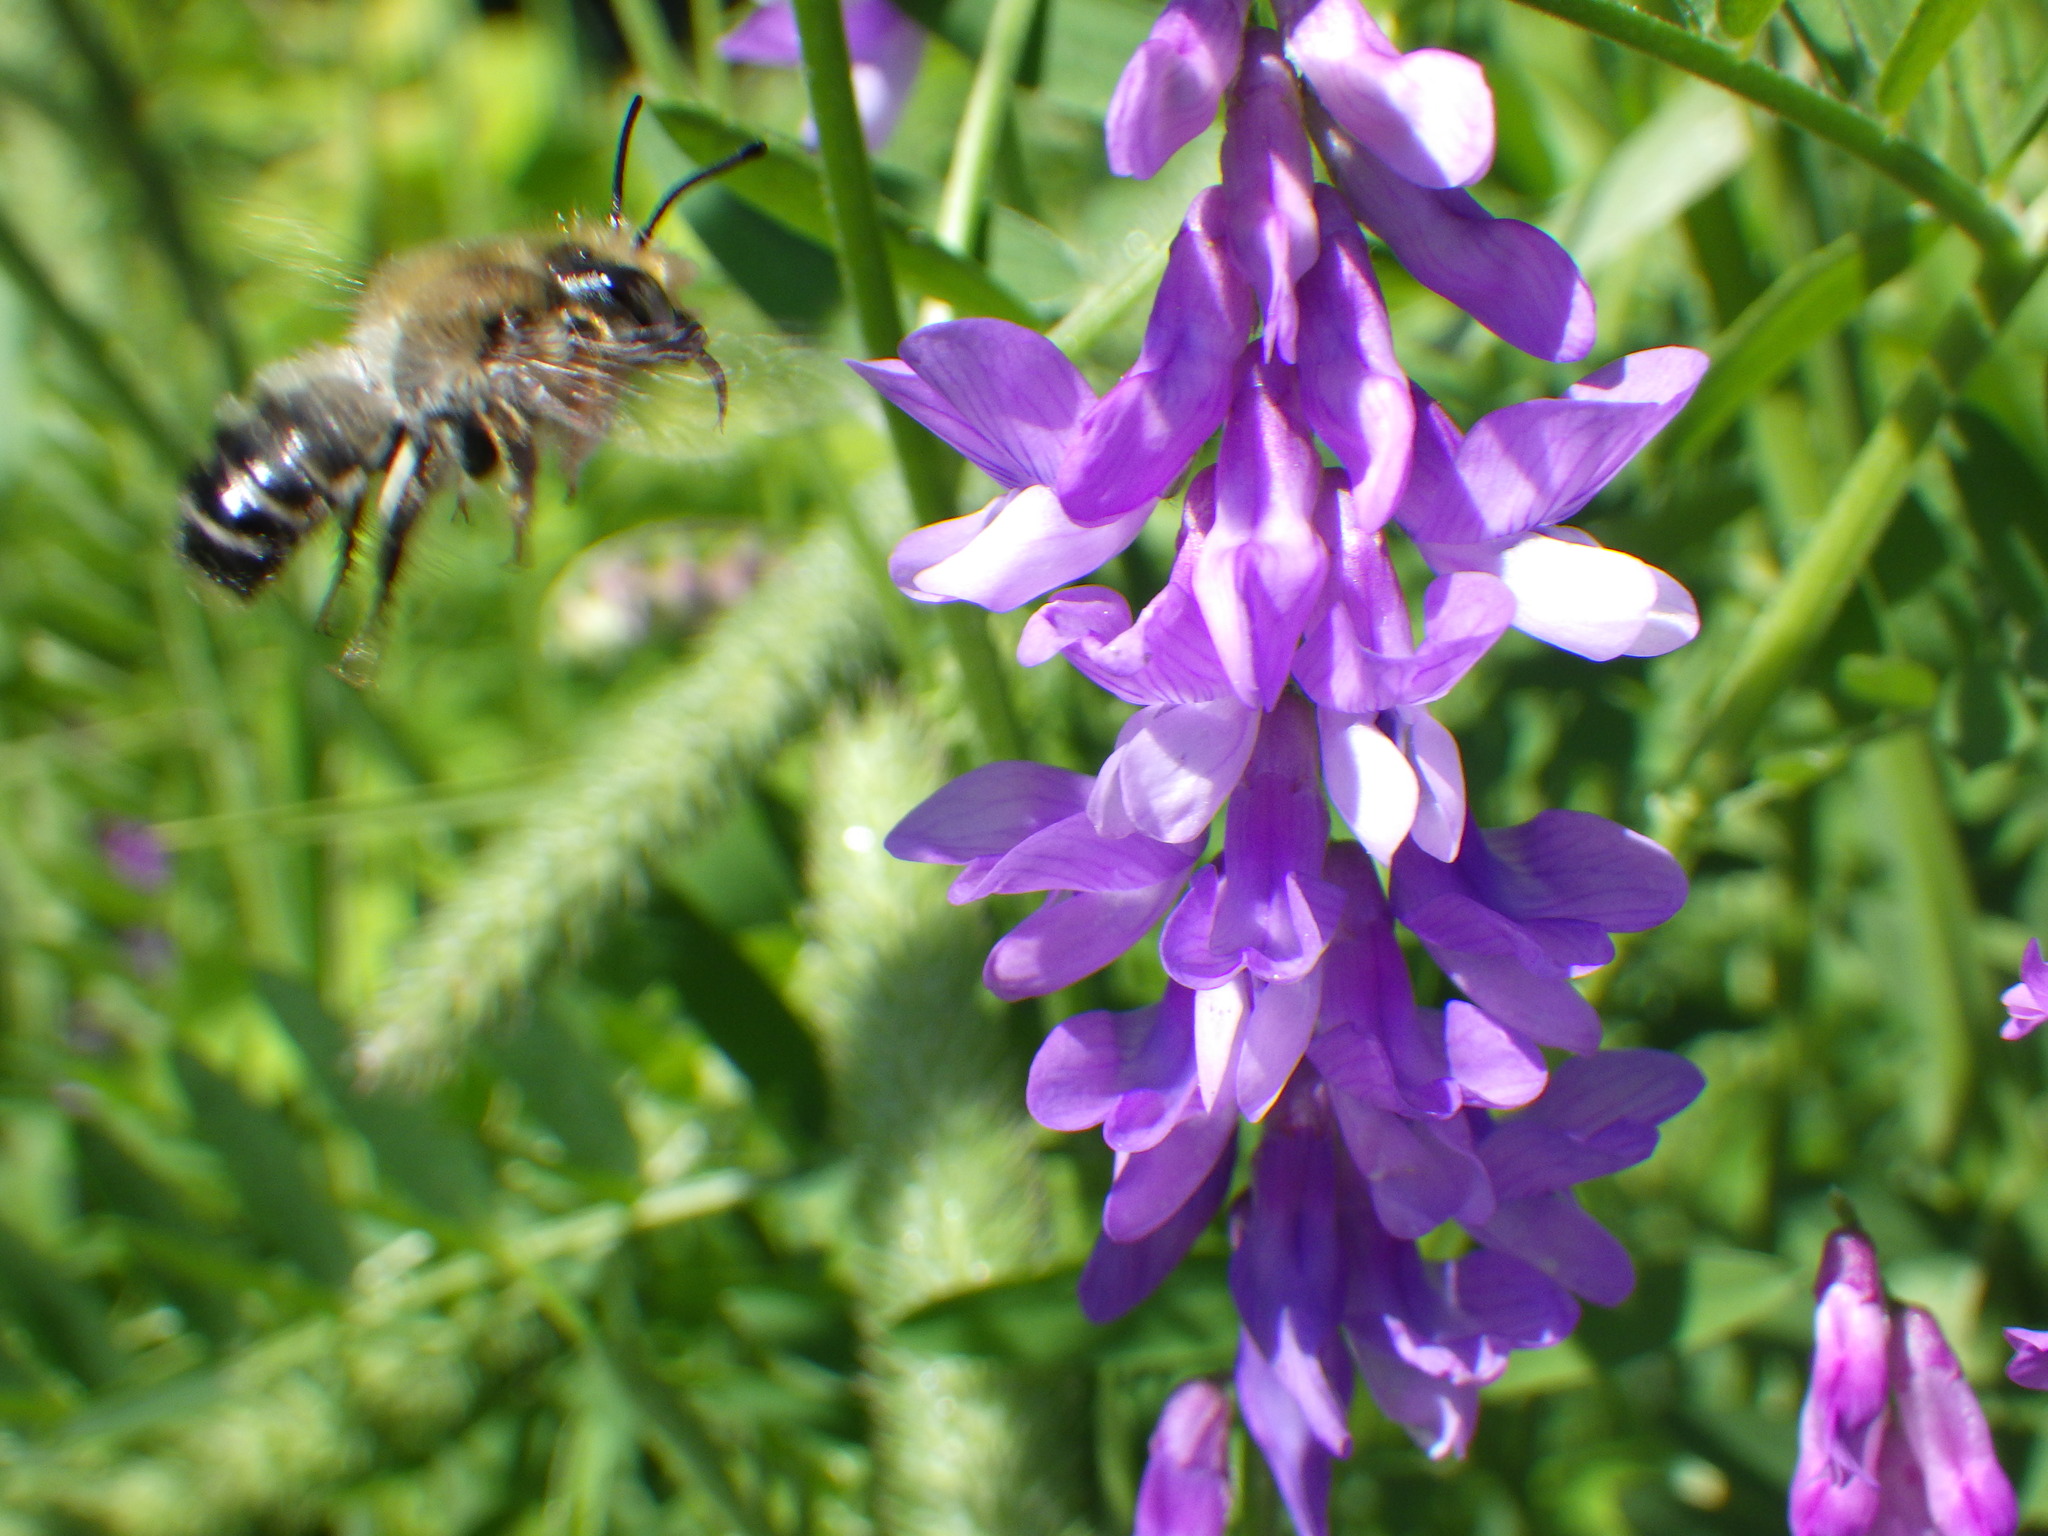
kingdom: Animalia
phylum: Arthropoda
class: Insecta
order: Hymenoptera
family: Megachilidae
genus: Megachile
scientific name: Megachile frigida
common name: Frigid leafcutter
